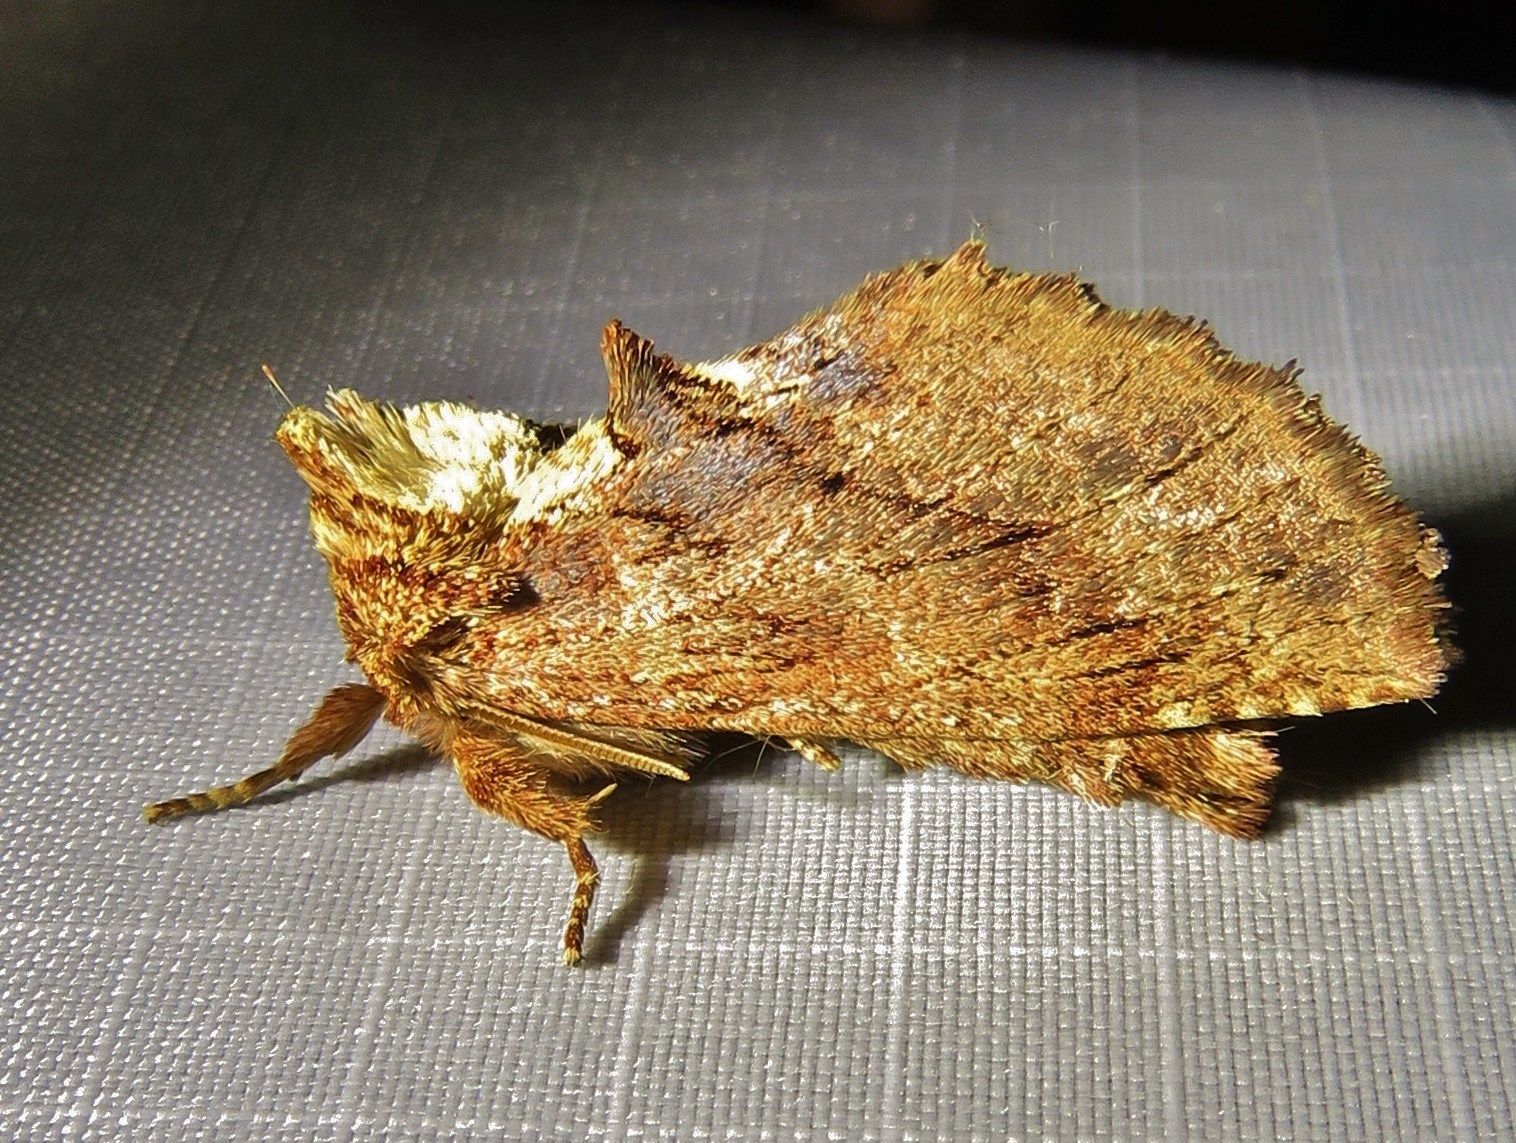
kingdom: Animalia
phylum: Arthropoda
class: Insecta
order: Lepidoptera
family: Notodontidae
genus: Ptilodon
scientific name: Ptilodon capucina
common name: Coxcomb prominent
